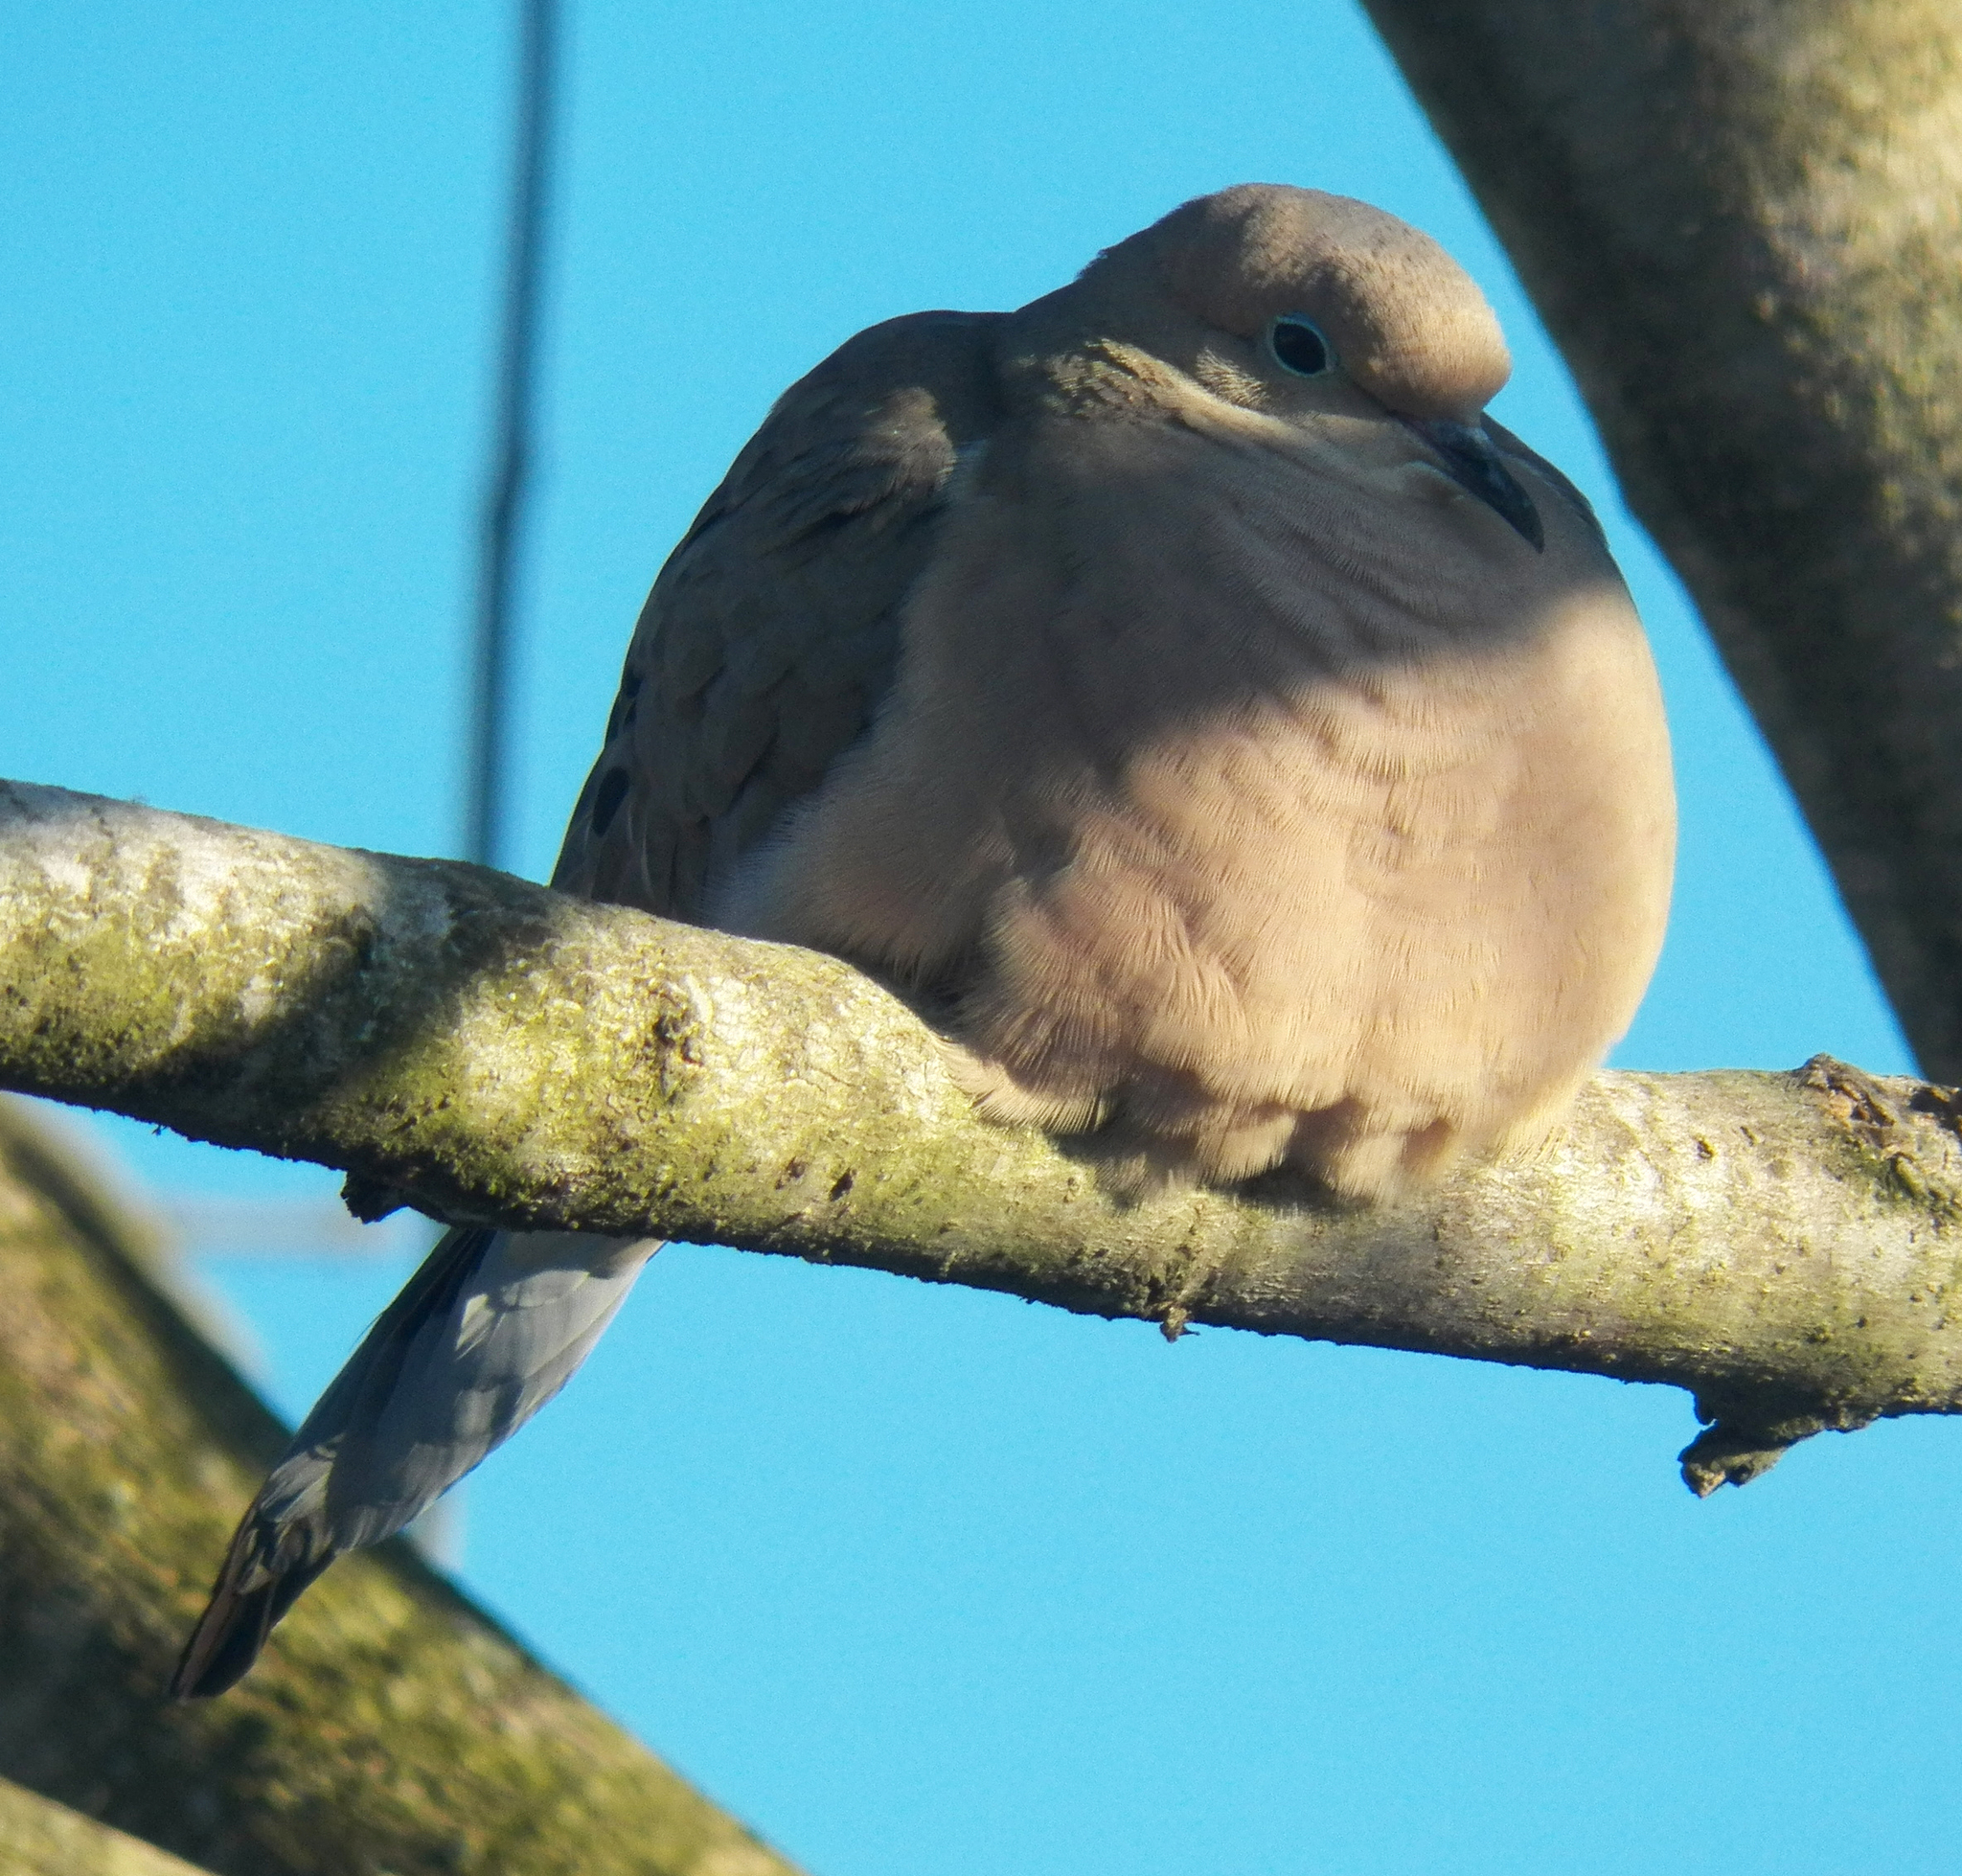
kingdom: Animalia
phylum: Chordata
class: Aves
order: Columbiformes
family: Columbidae
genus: Zenaida
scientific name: Zenaida macroura
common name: Mourning dove
